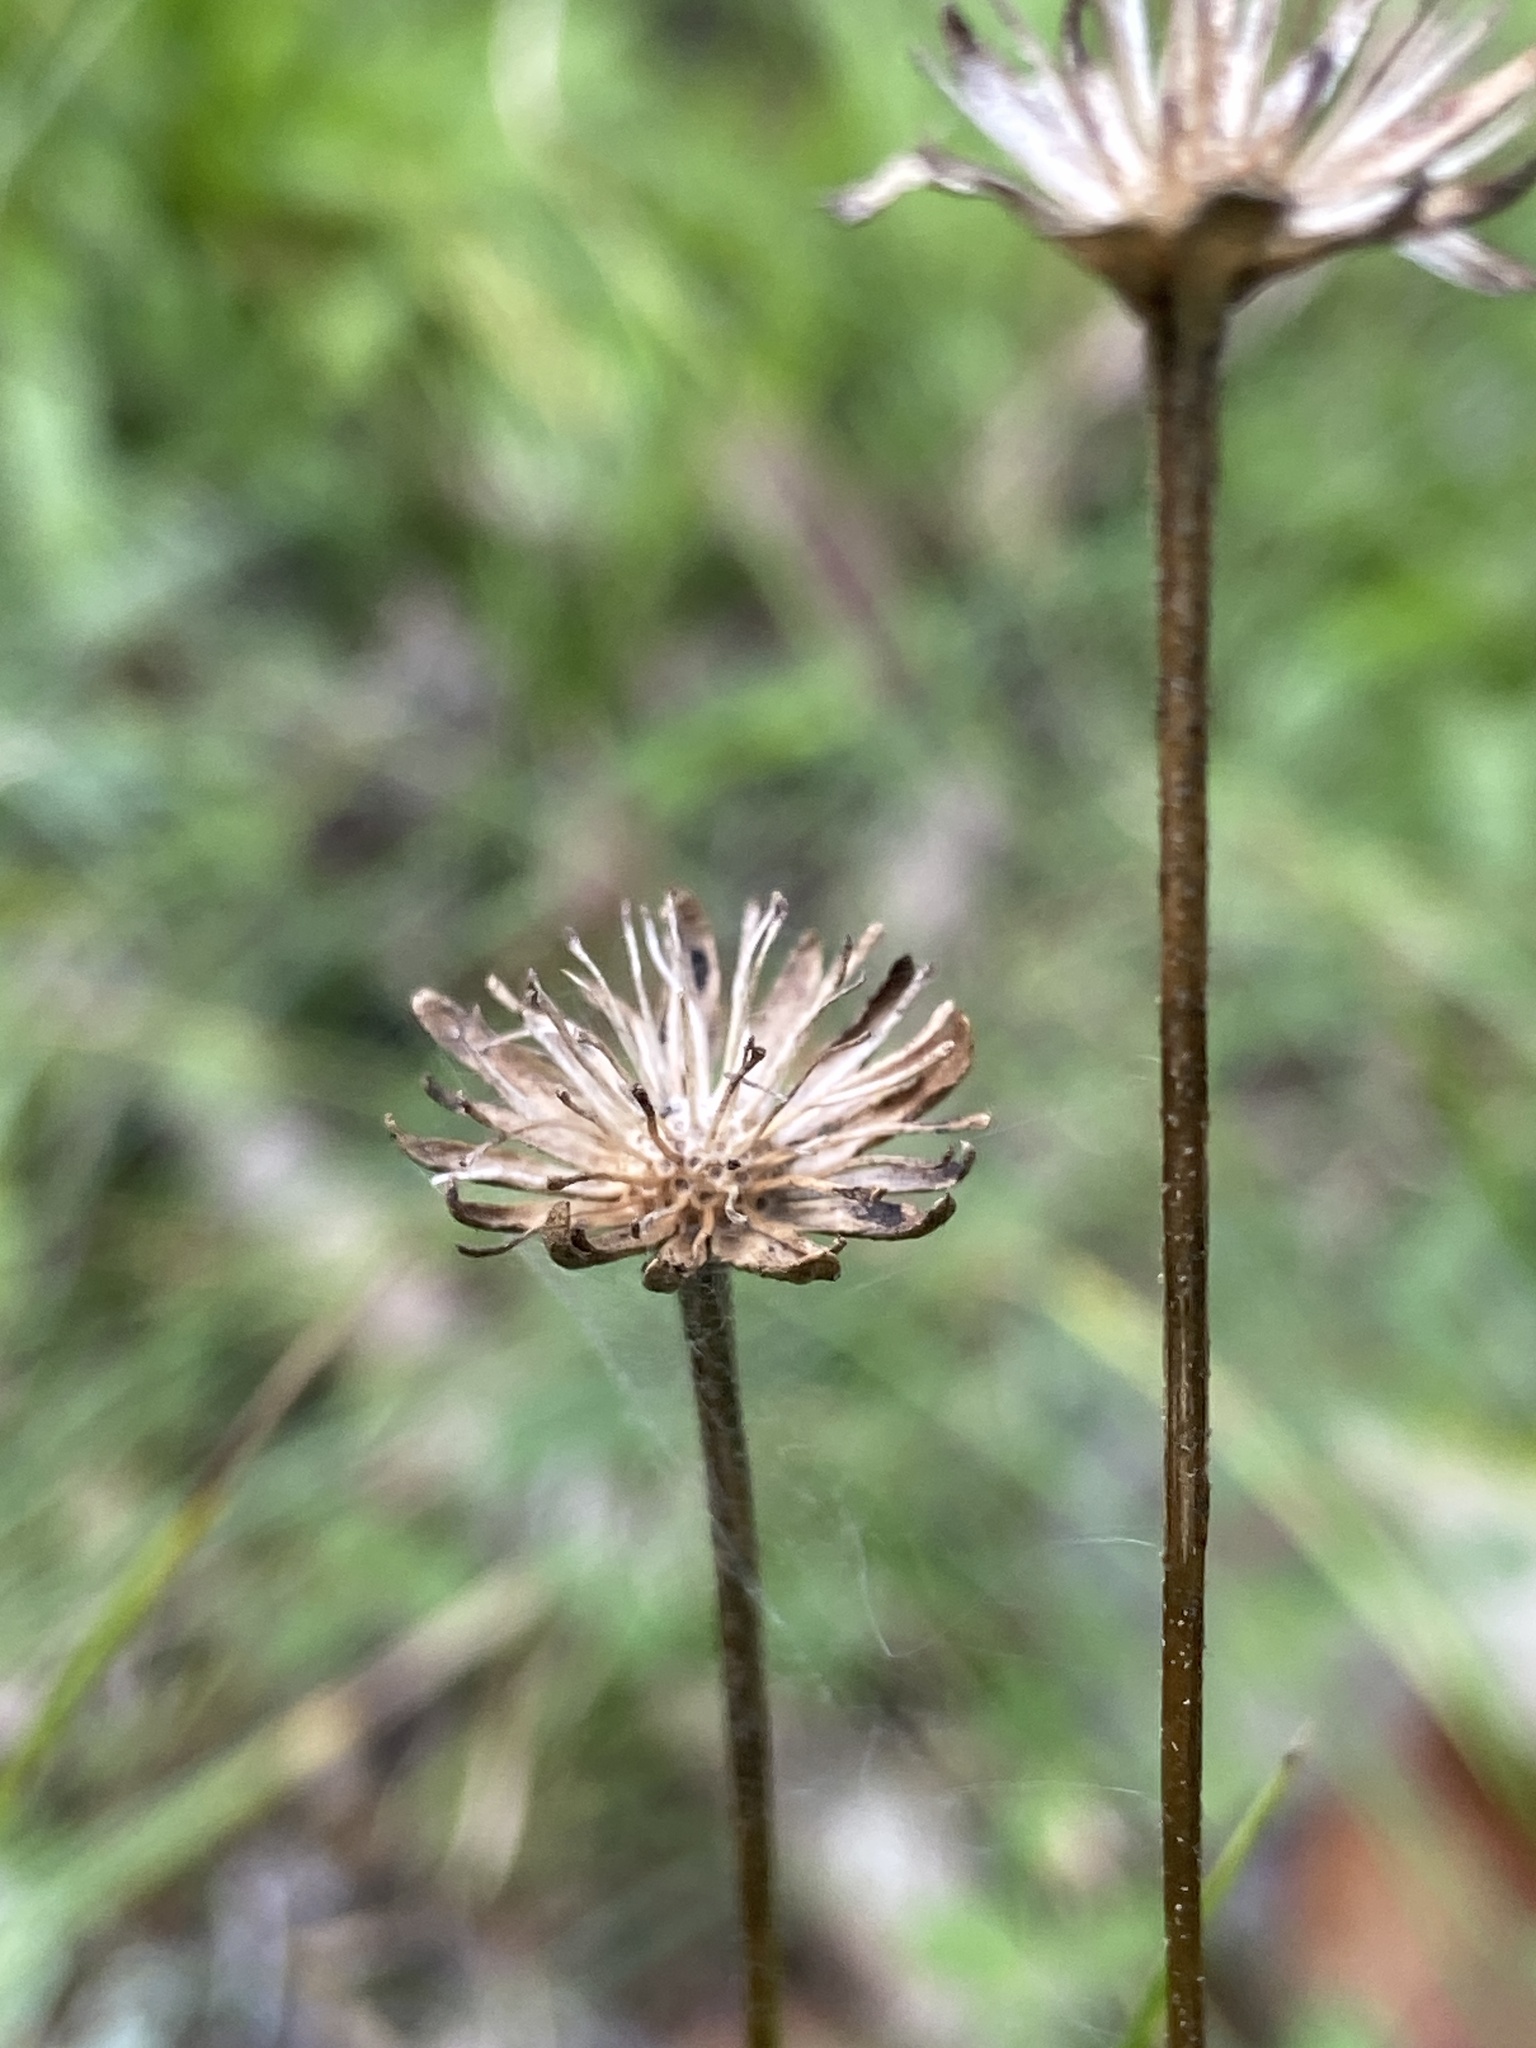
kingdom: Plantae
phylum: Tracheophyta
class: Magnoliopsida
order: Asterales
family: Asteraceae
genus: Marshallia
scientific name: Marshallia obovata
